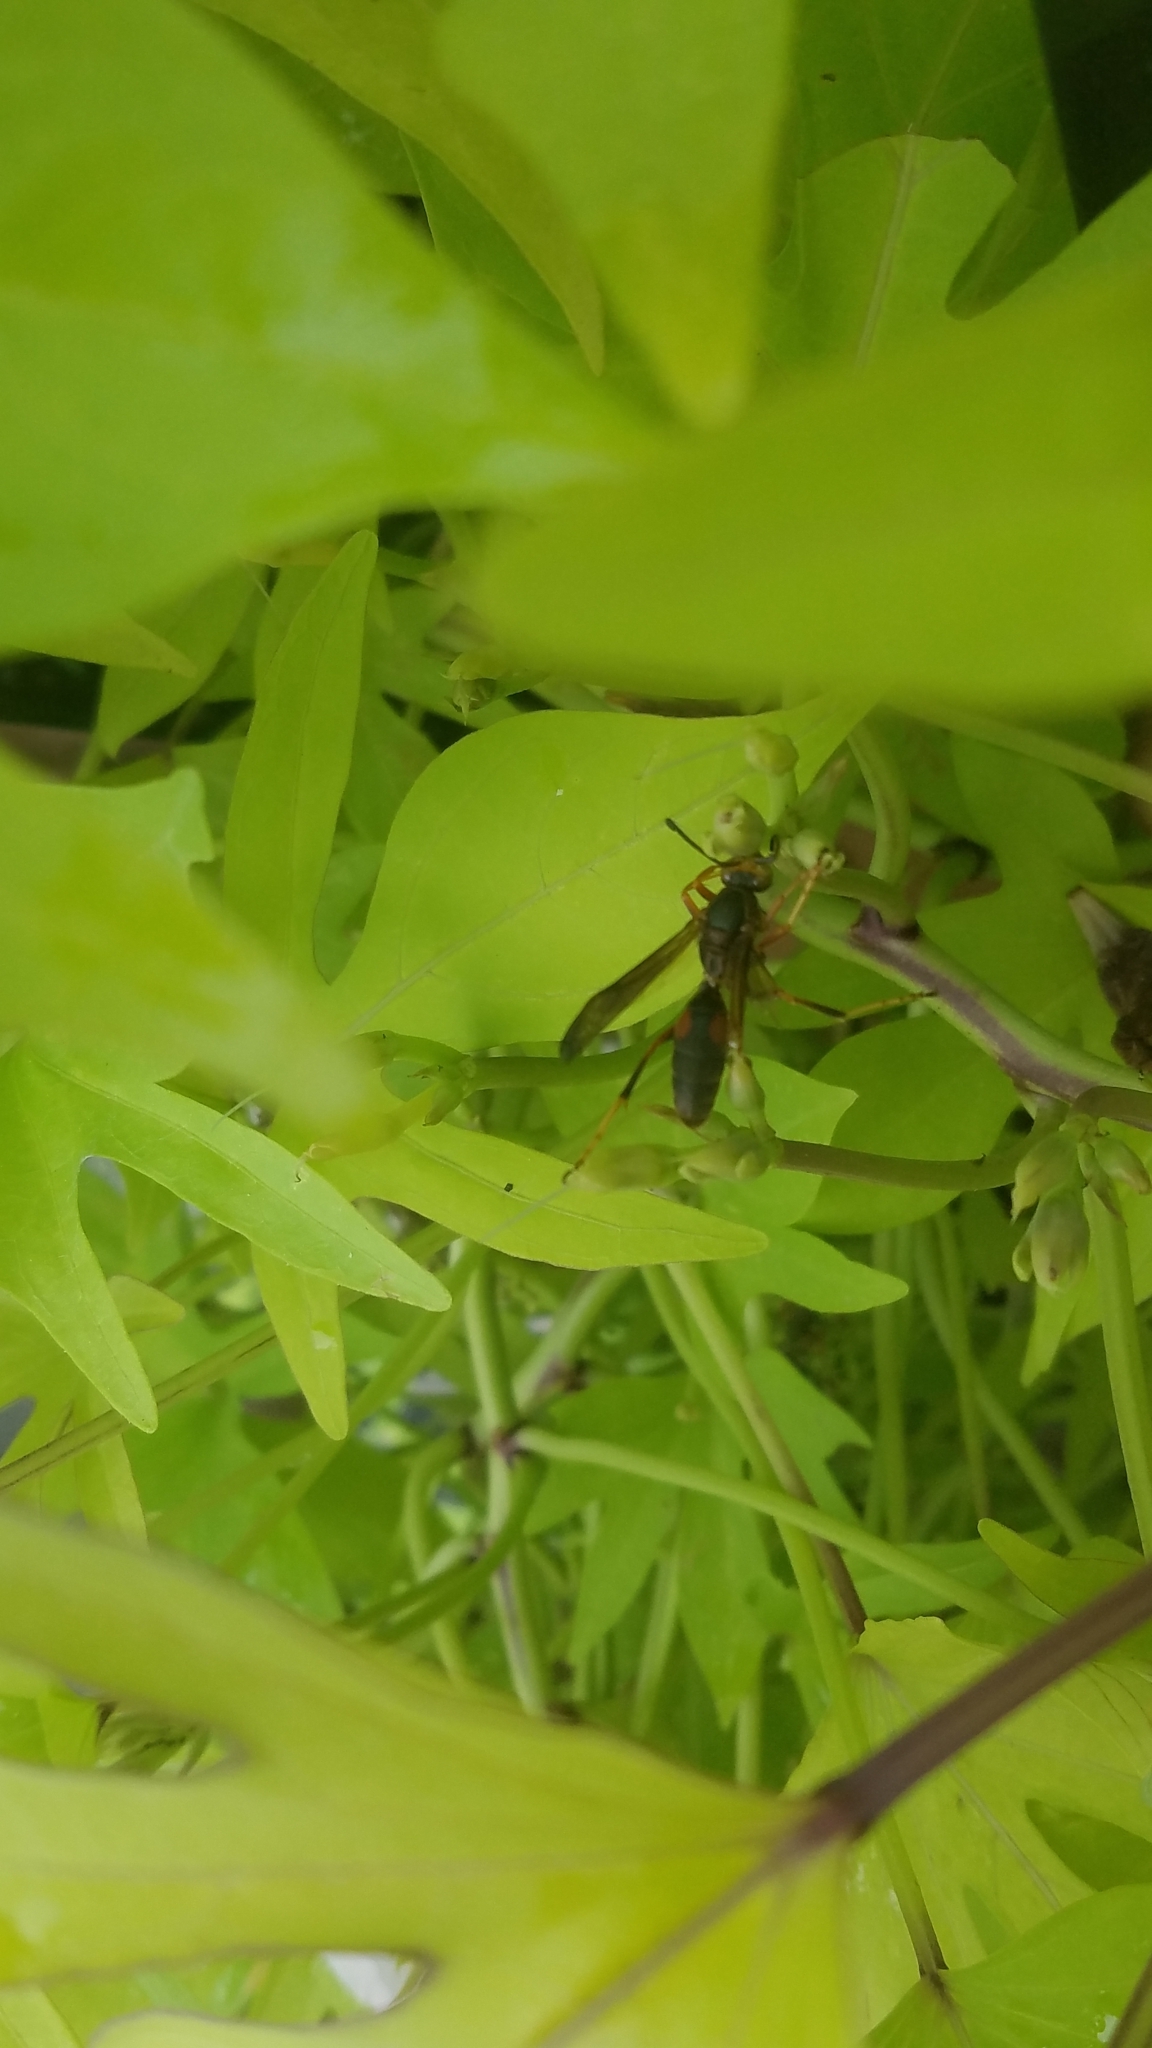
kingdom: Animalia
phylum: Arthropoda
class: Insecta
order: Hymenoptera
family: Eumenidae
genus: Polistes
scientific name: Polistes fuscatus
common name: Dark paper wasp
